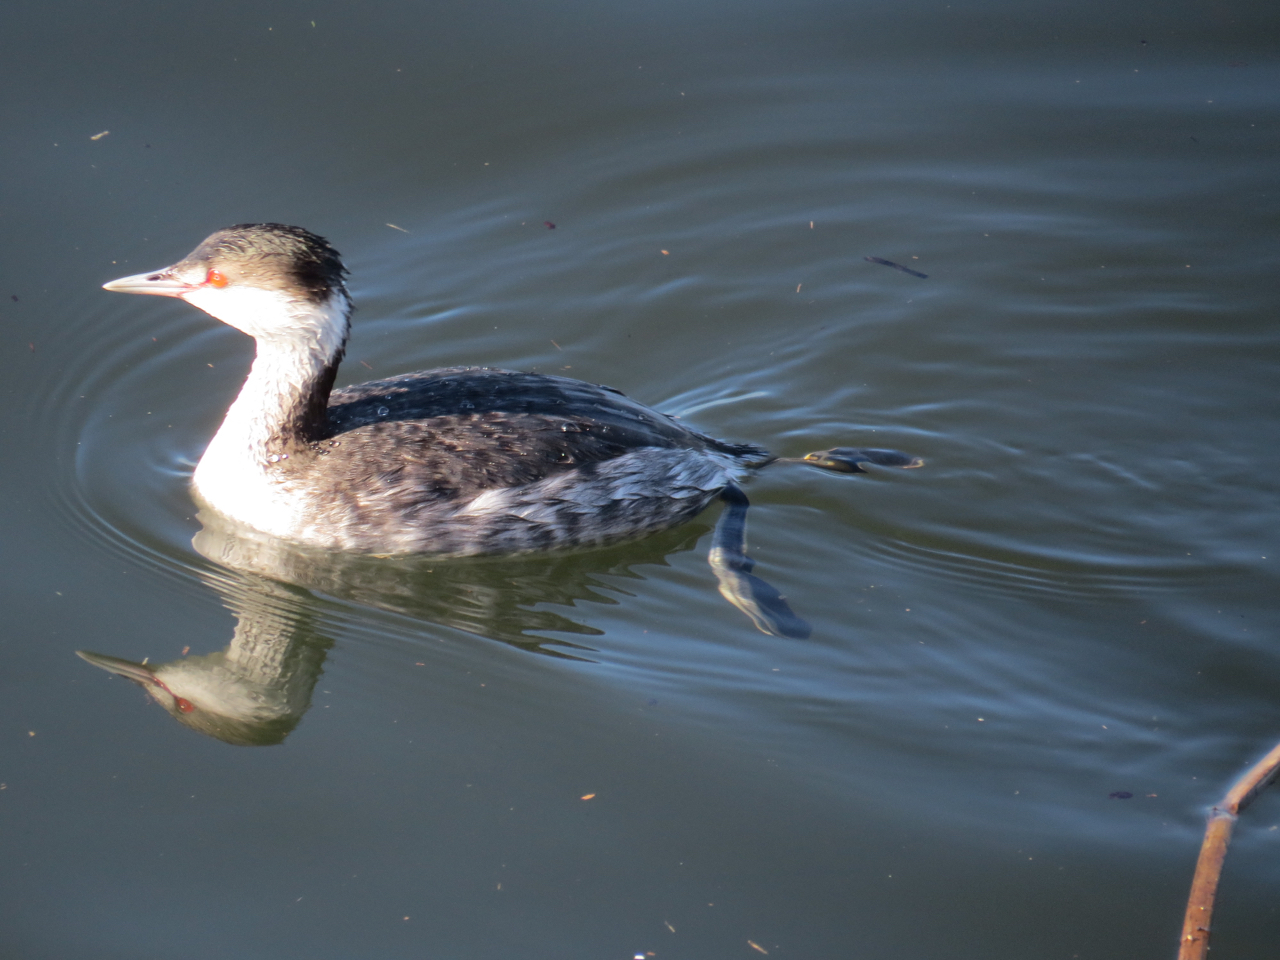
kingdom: Animalia
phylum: Chordata
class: Aves
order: Podicipediformes
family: Podicipedidae
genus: Podiceps
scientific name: Podiceps auritus
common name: Horned grebe
